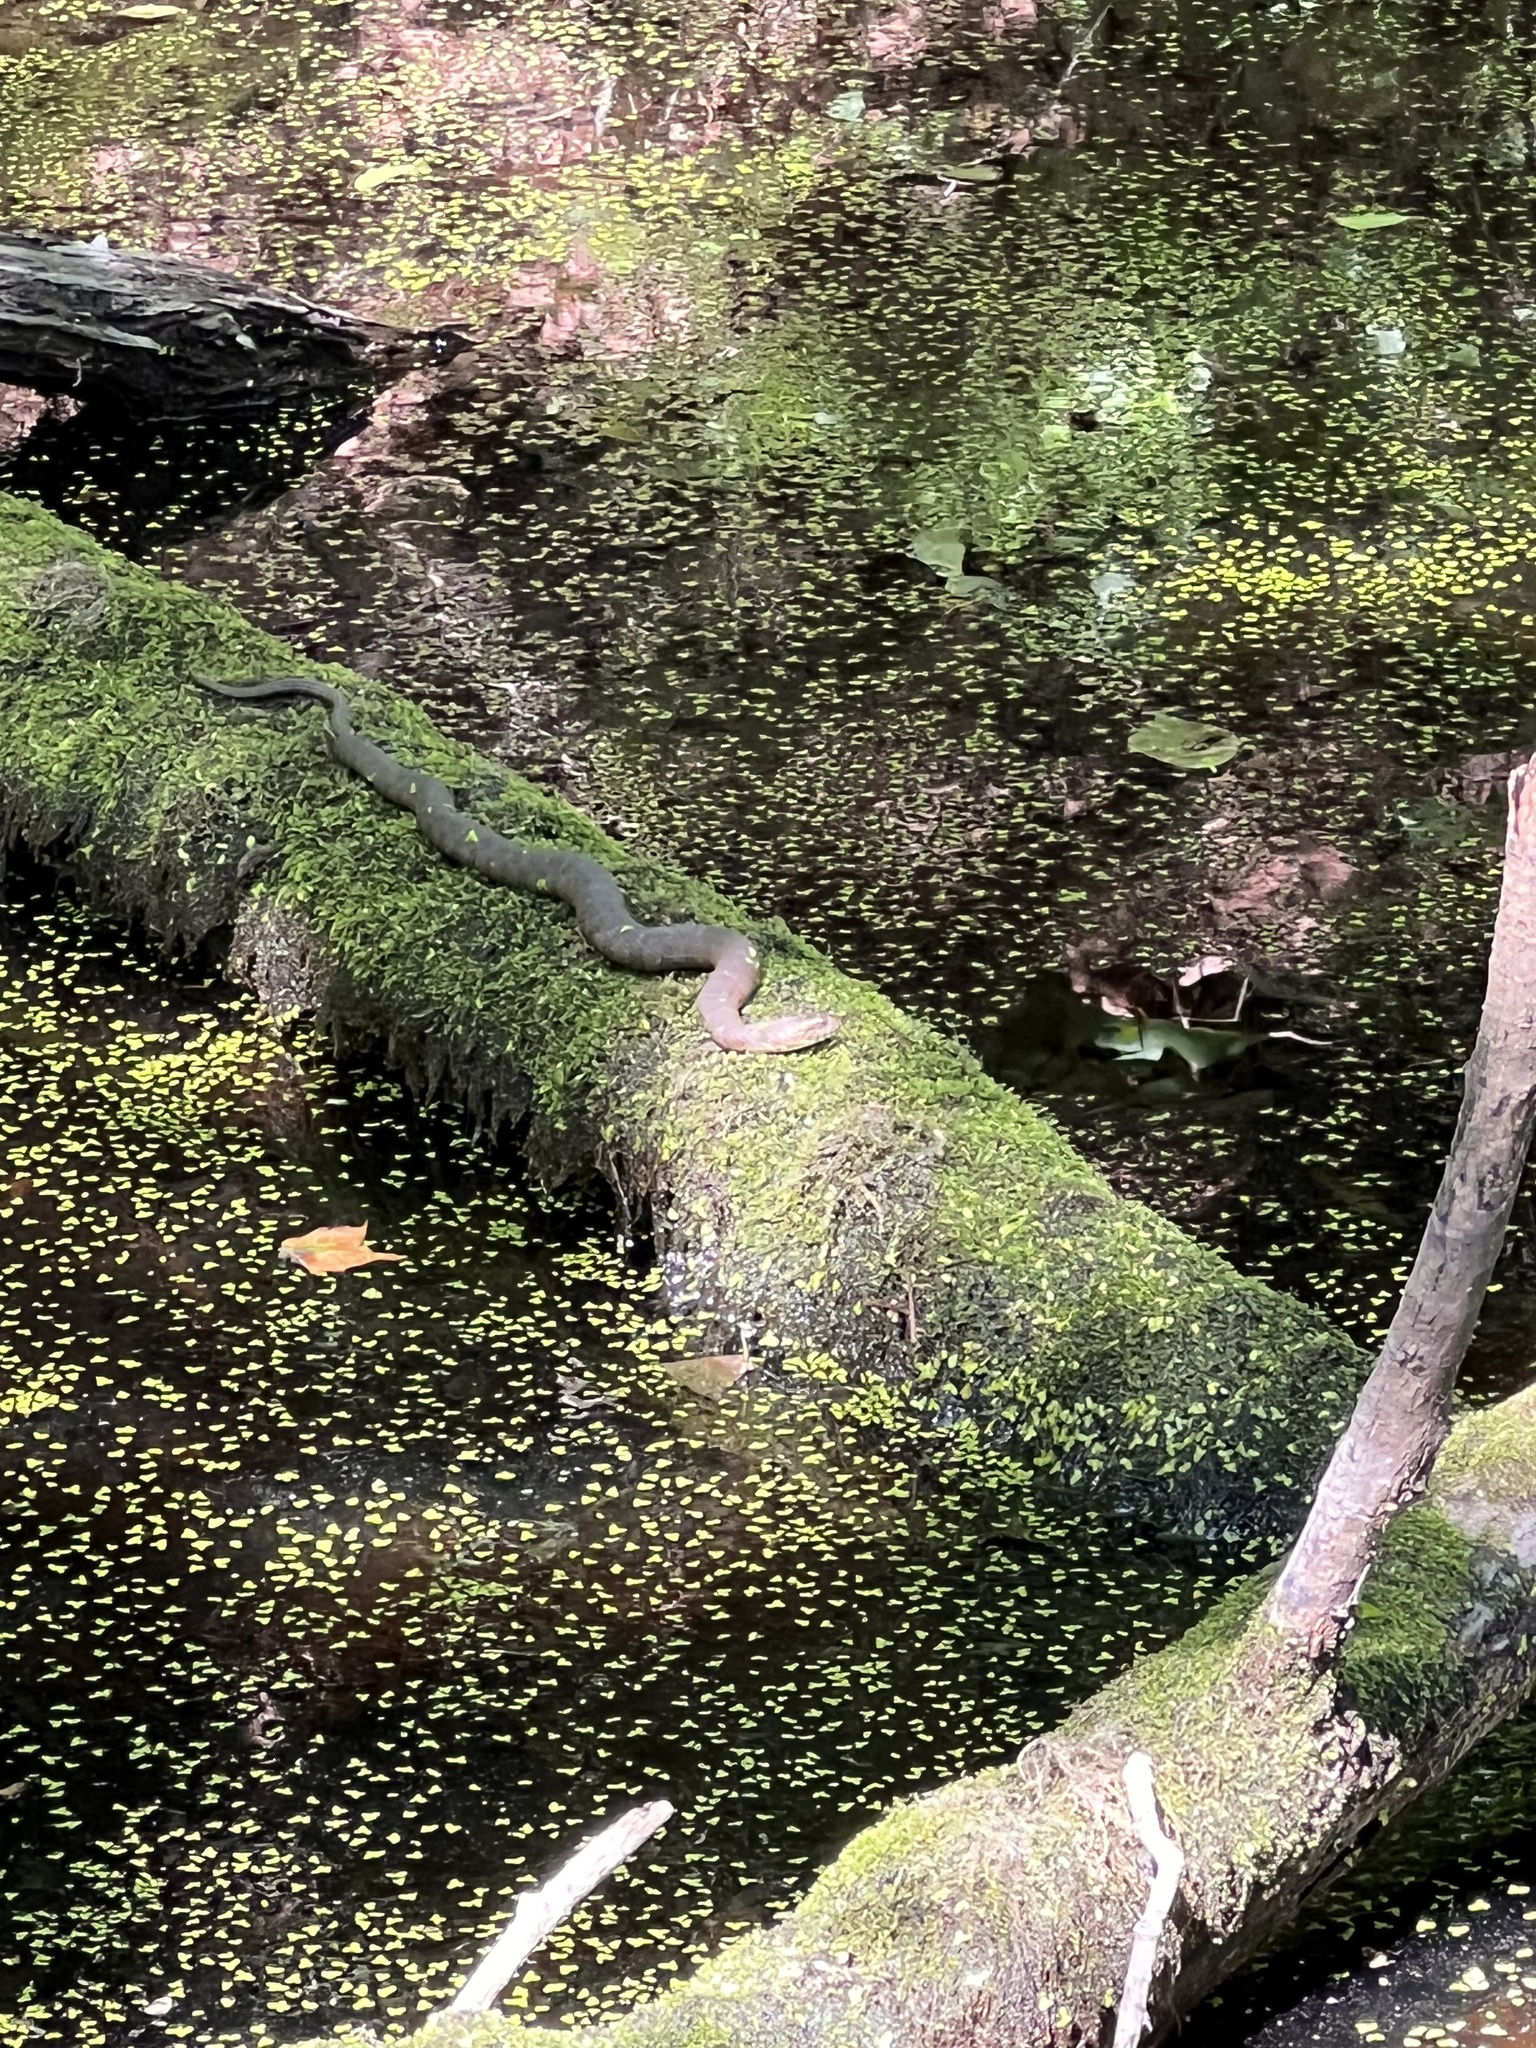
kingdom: Animalia
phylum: Chordata
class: Squamata
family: Colubridae
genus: Nerodia
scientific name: Nerodia sipedon
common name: Northern water snake
